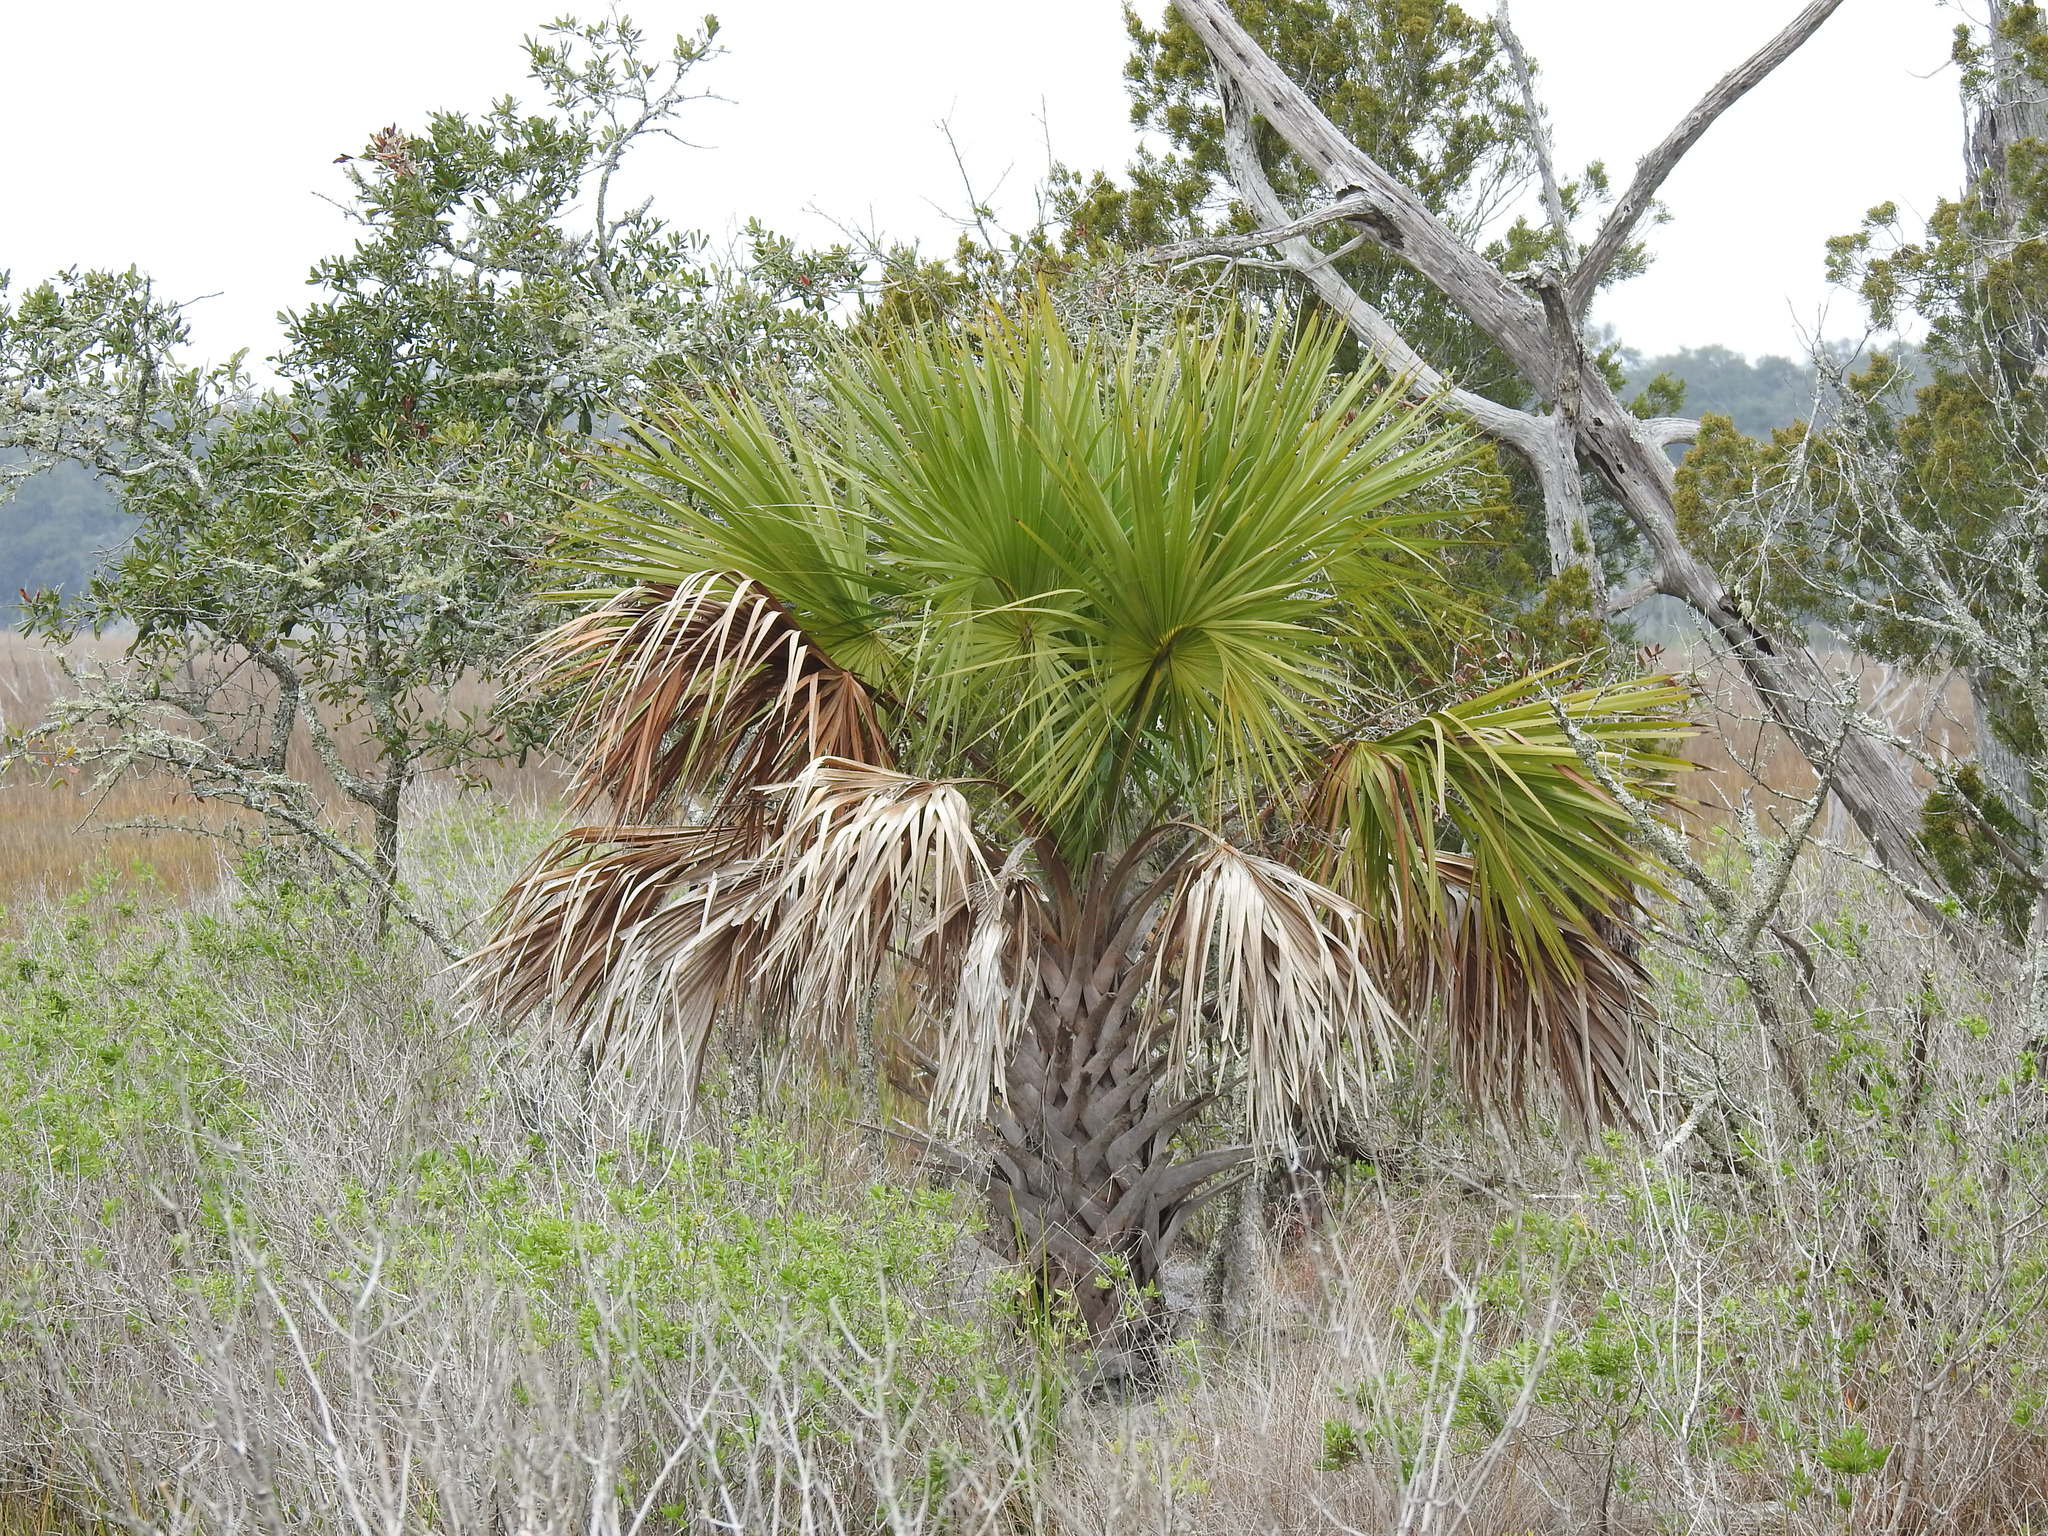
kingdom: Plantae
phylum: Tracheophyta
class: Liliopsida
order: Arecales
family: Arecaceae
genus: Sabal
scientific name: Sabal palmetto
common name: Blue palmetto
